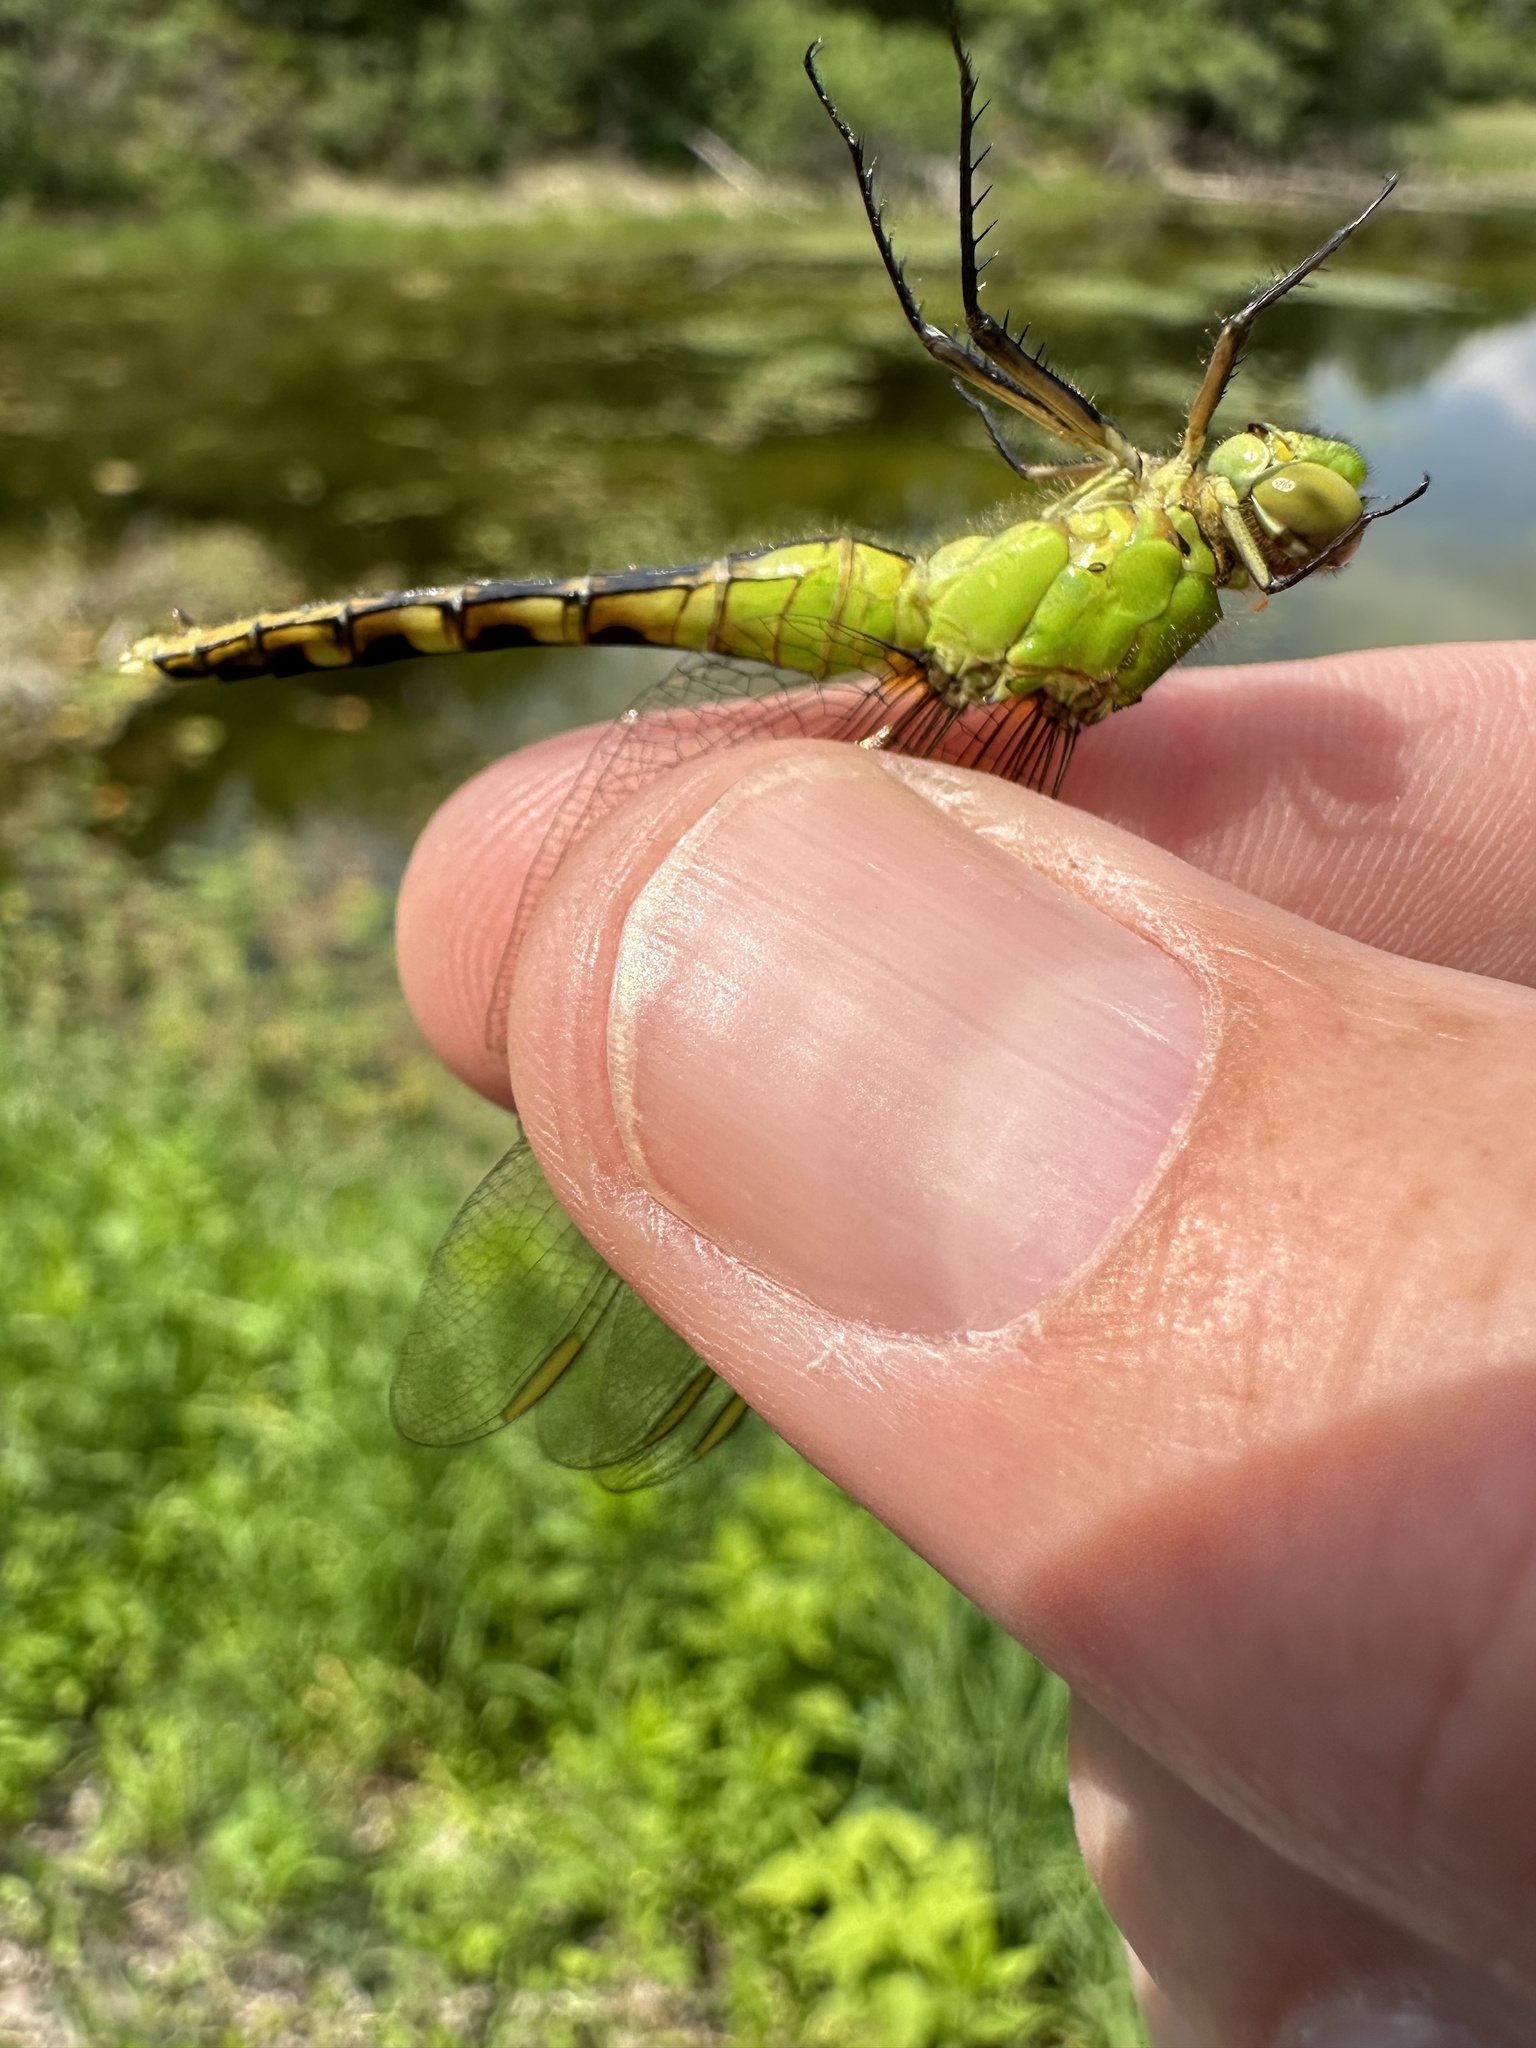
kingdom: Animalia
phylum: Arthropoda
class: Insecta
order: Odonata
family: Libellulidae
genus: Erythemis
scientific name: Erythemis simplicicollis
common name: Eastern pondhawk
